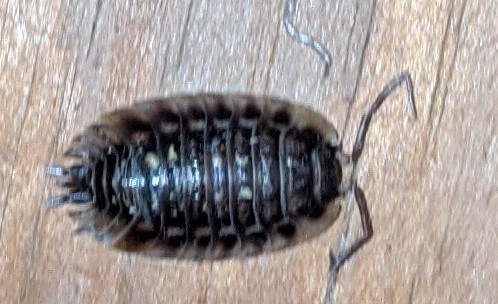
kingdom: Animalia
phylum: Arthropoda
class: Malacostraca
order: Isopoda
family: Oniscidae
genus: Oniscus
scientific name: Oniscus asellus
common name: Common shiny woodlouse
